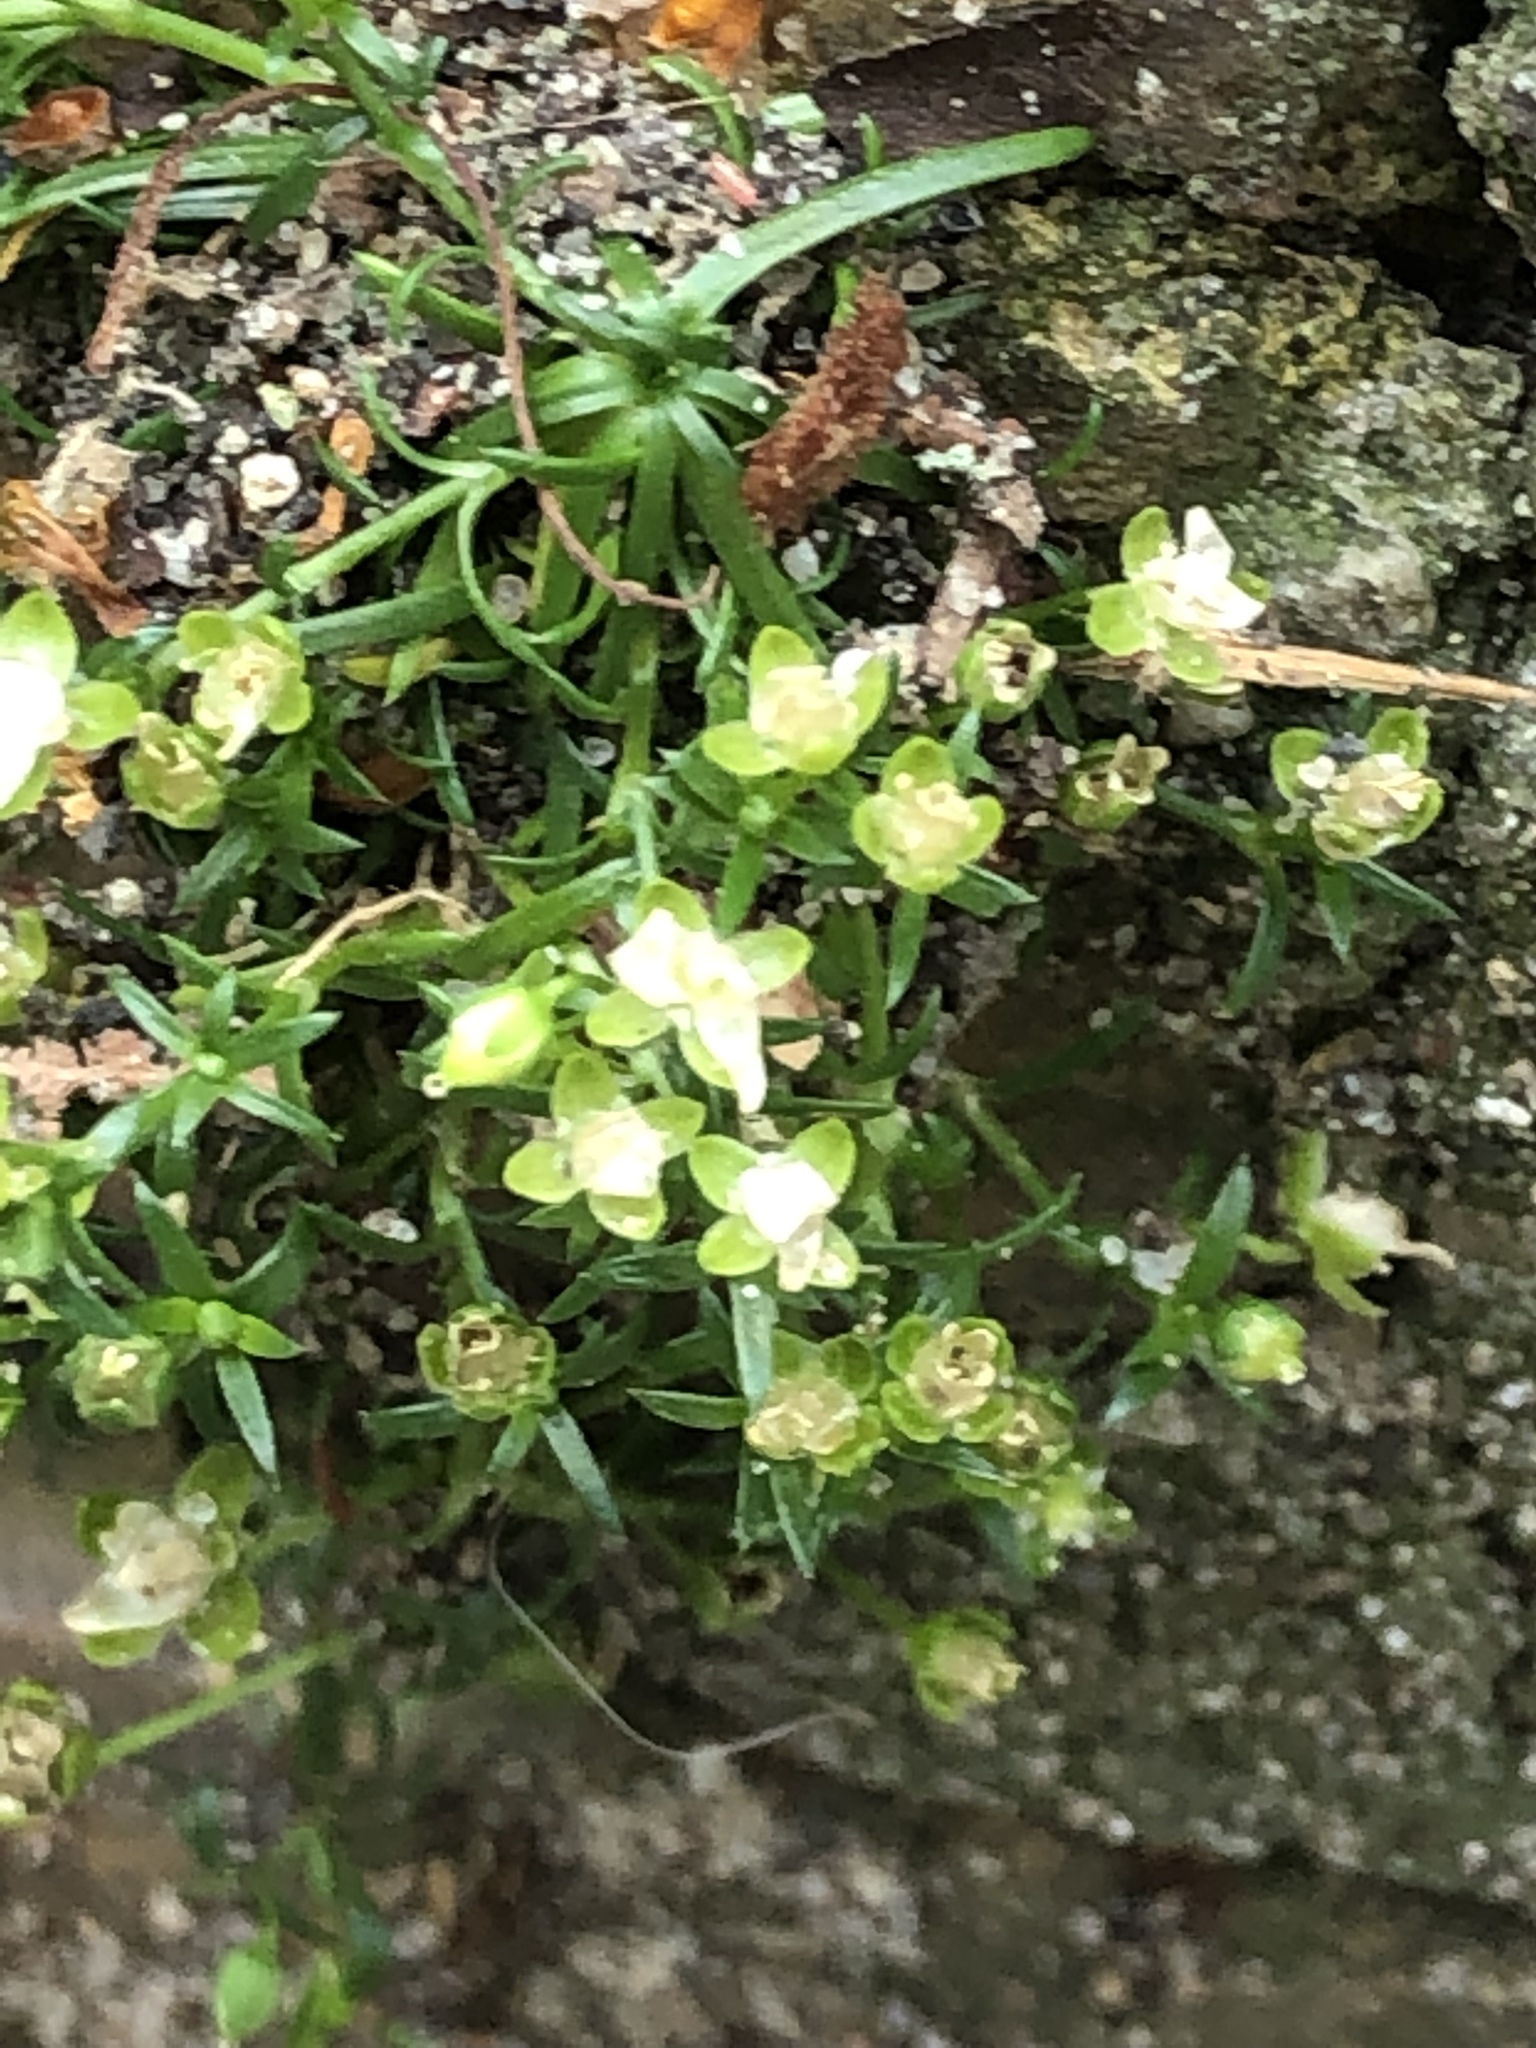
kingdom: Plantae
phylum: Tracheophyta
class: Magnoliopsida
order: Caryophyllales
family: Caryophyllaceae
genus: Sagina
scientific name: Sagina procumbens
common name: Procumbent pearlwort
